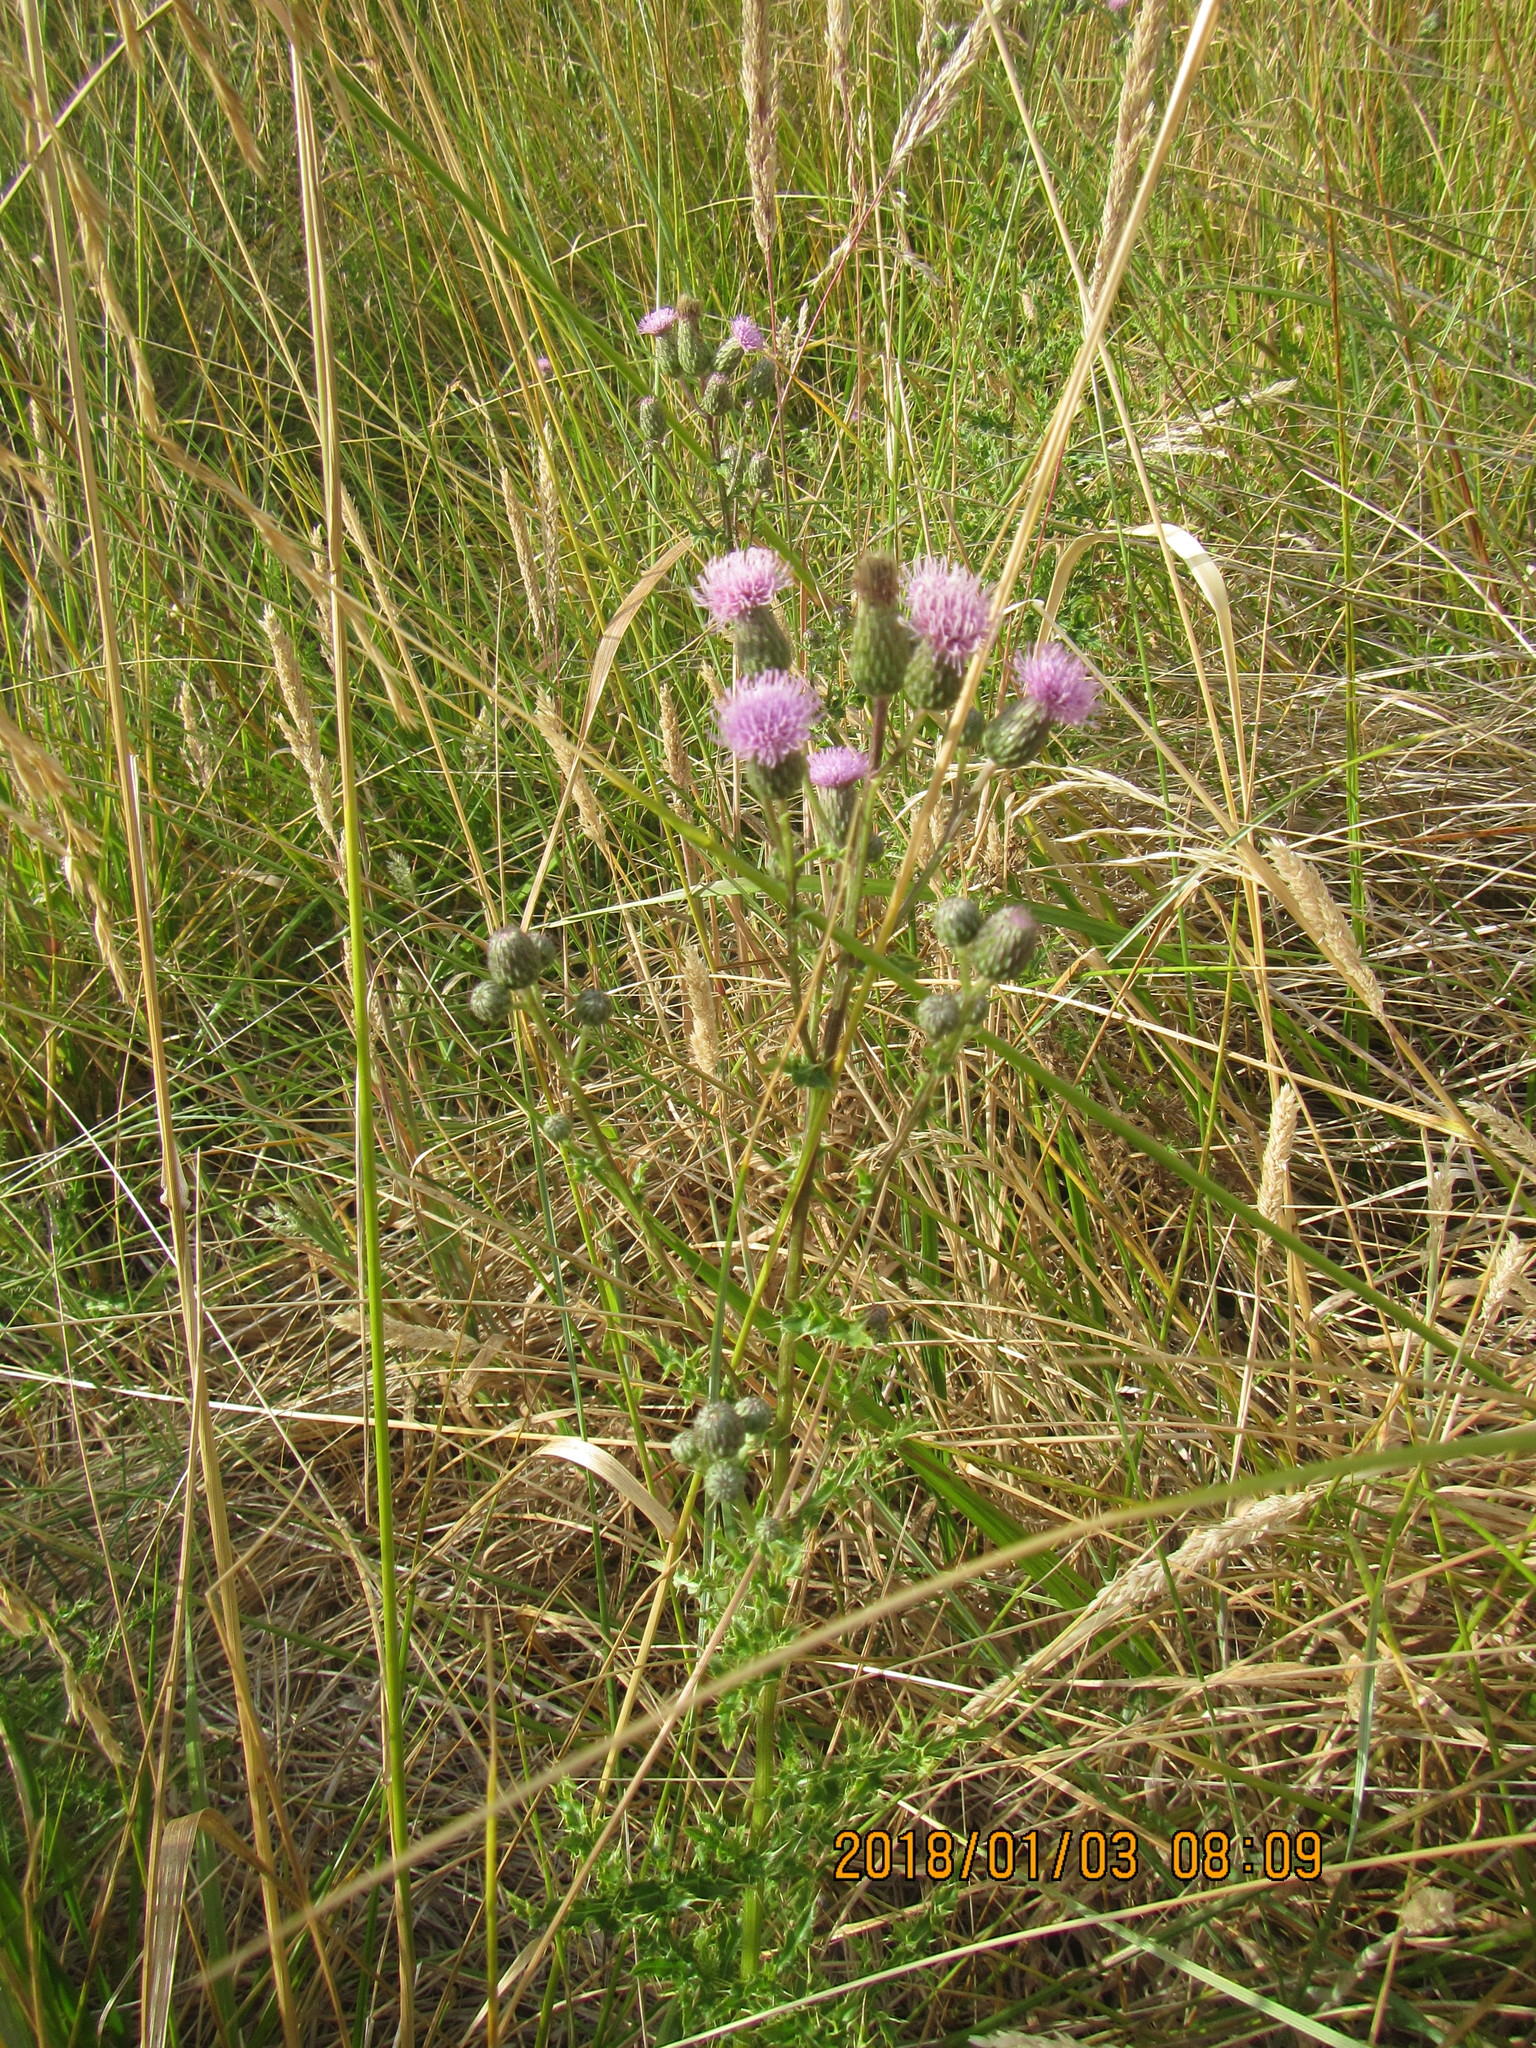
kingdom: Plantae
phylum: Tracheophyta
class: Magnoliopsida
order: Asterales
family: Asteraceae
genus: Cirsium
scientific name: Cirsium arvense
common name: Creeping thistle
